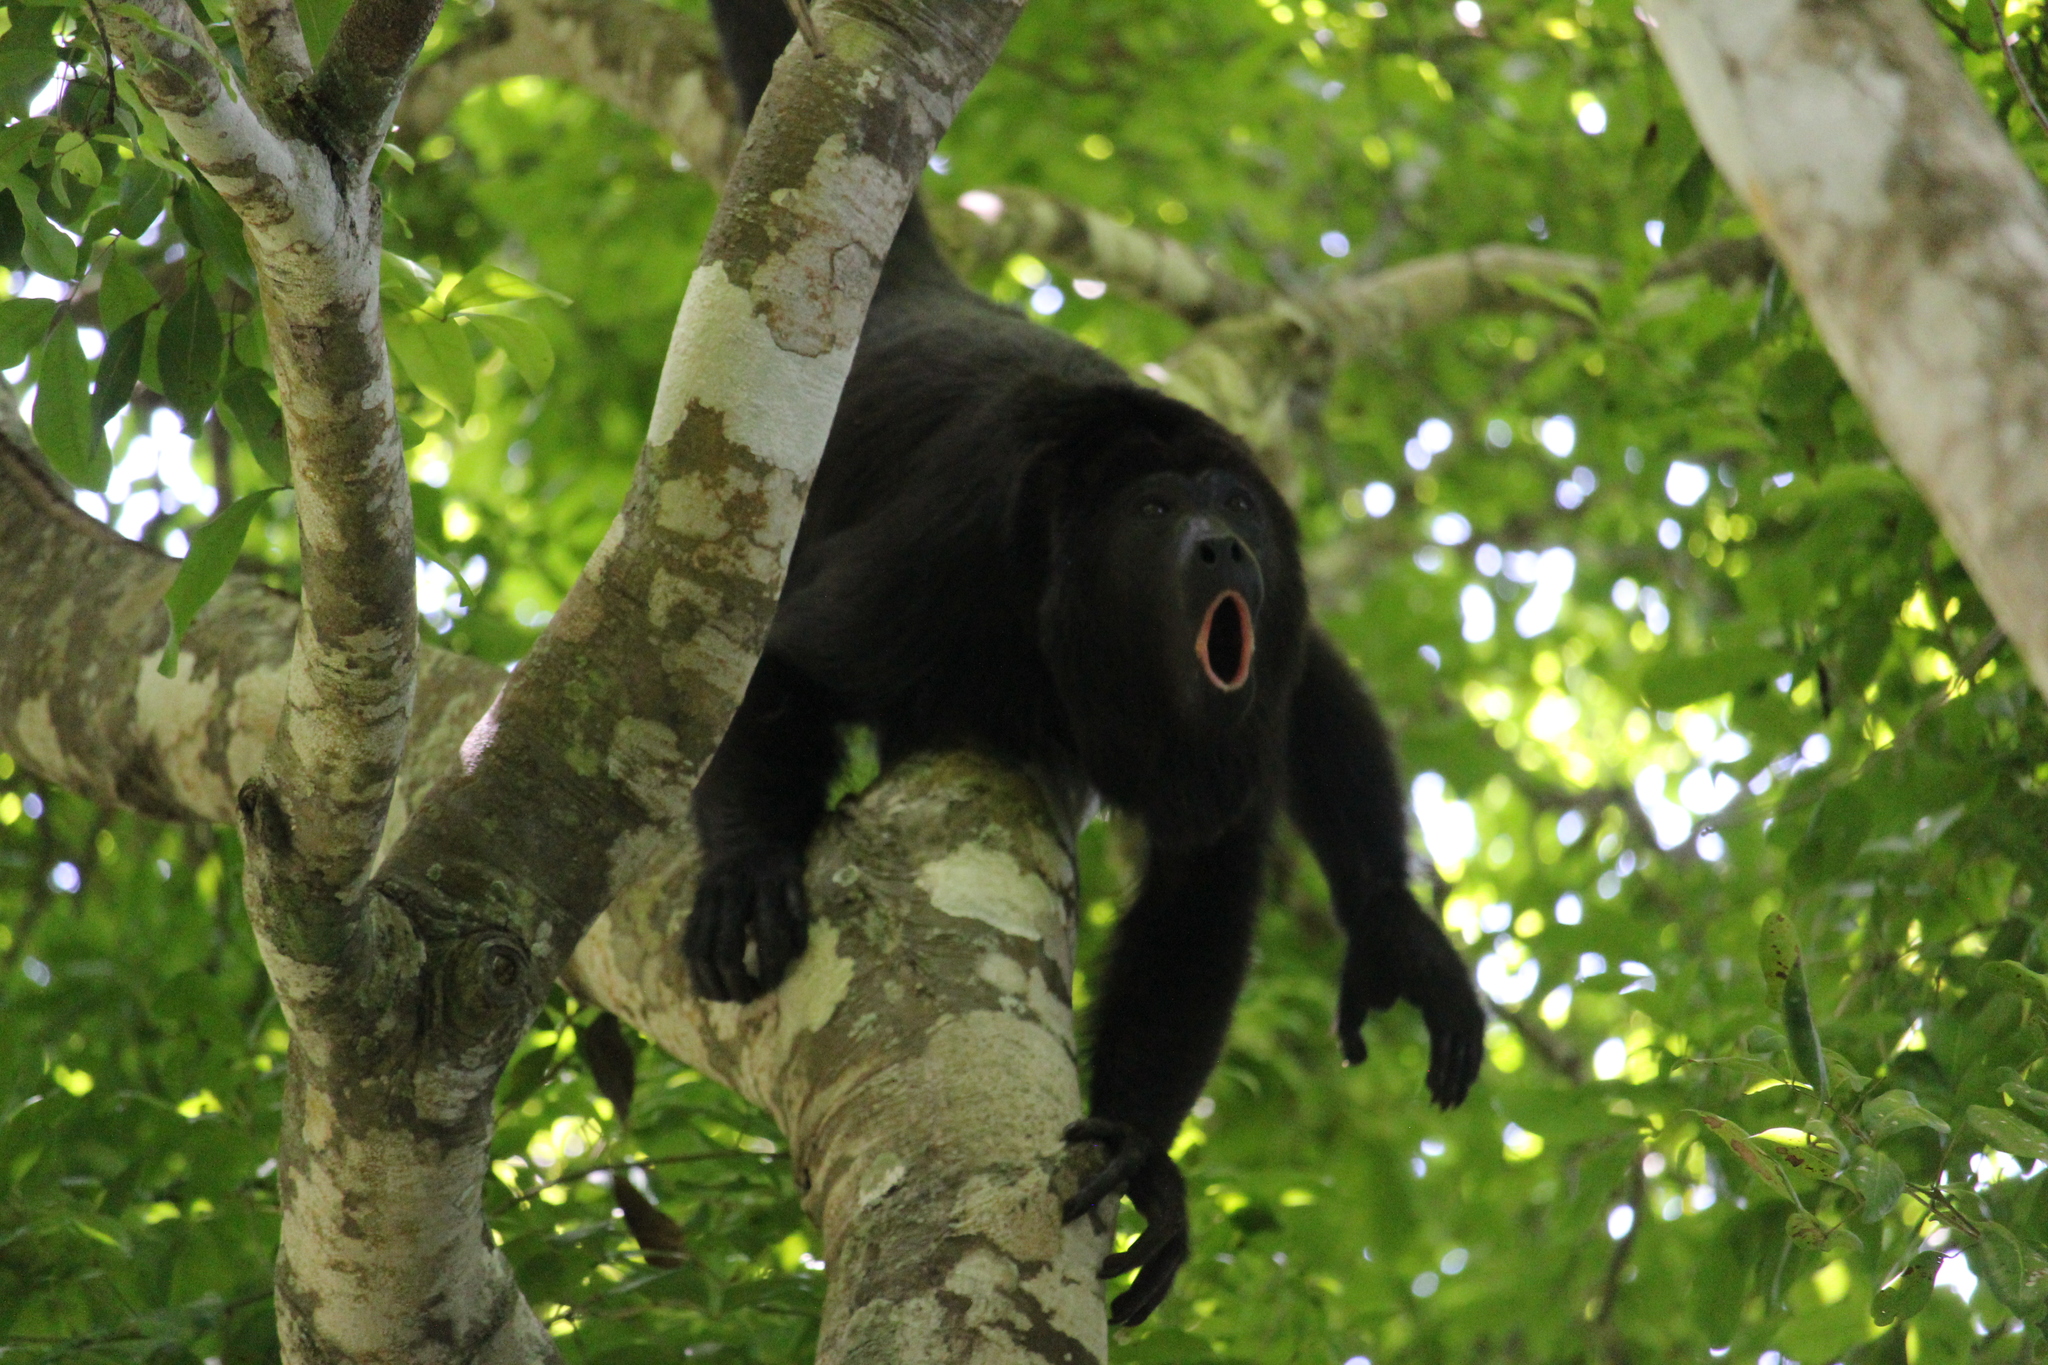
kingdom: Animalia
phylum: Chordata
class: Mammalia
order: Primates
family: Atelidae
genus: Alouatta
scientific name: Alouatta pigra
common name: Guatemalan black howler
